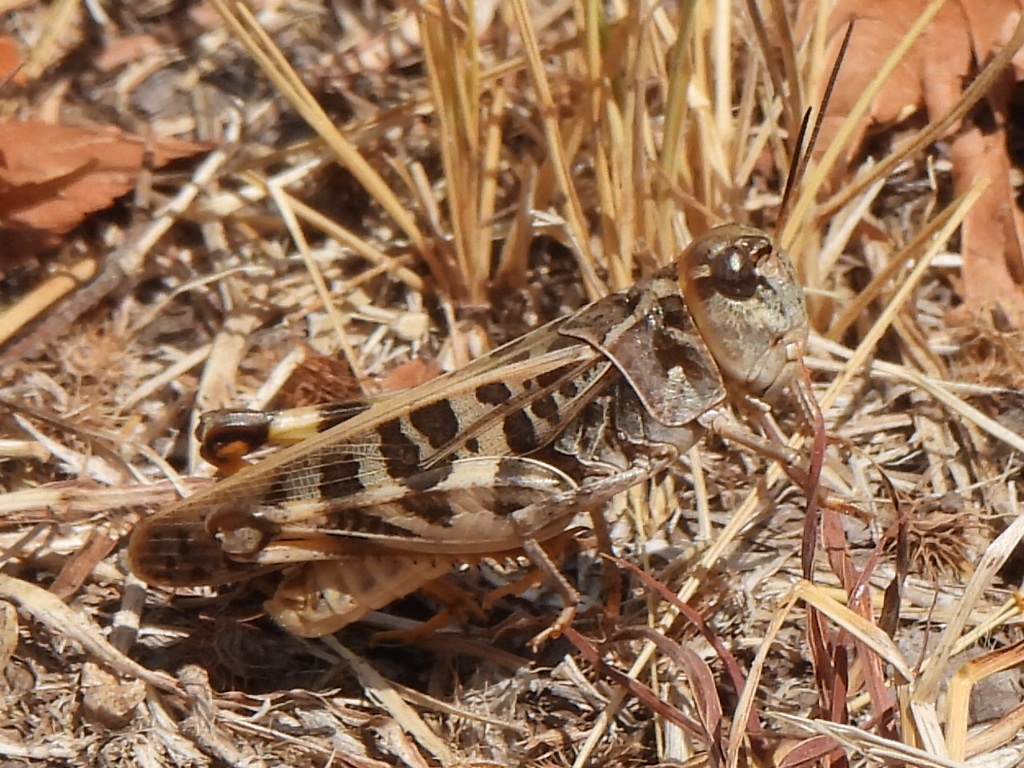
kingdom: Animalia
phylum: Arthropoda
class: Insecta
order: Orthoptera
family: Acrididae
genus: Hippiscus
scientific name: Hippiscus ocelote
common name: Wrinkled grasshopper
